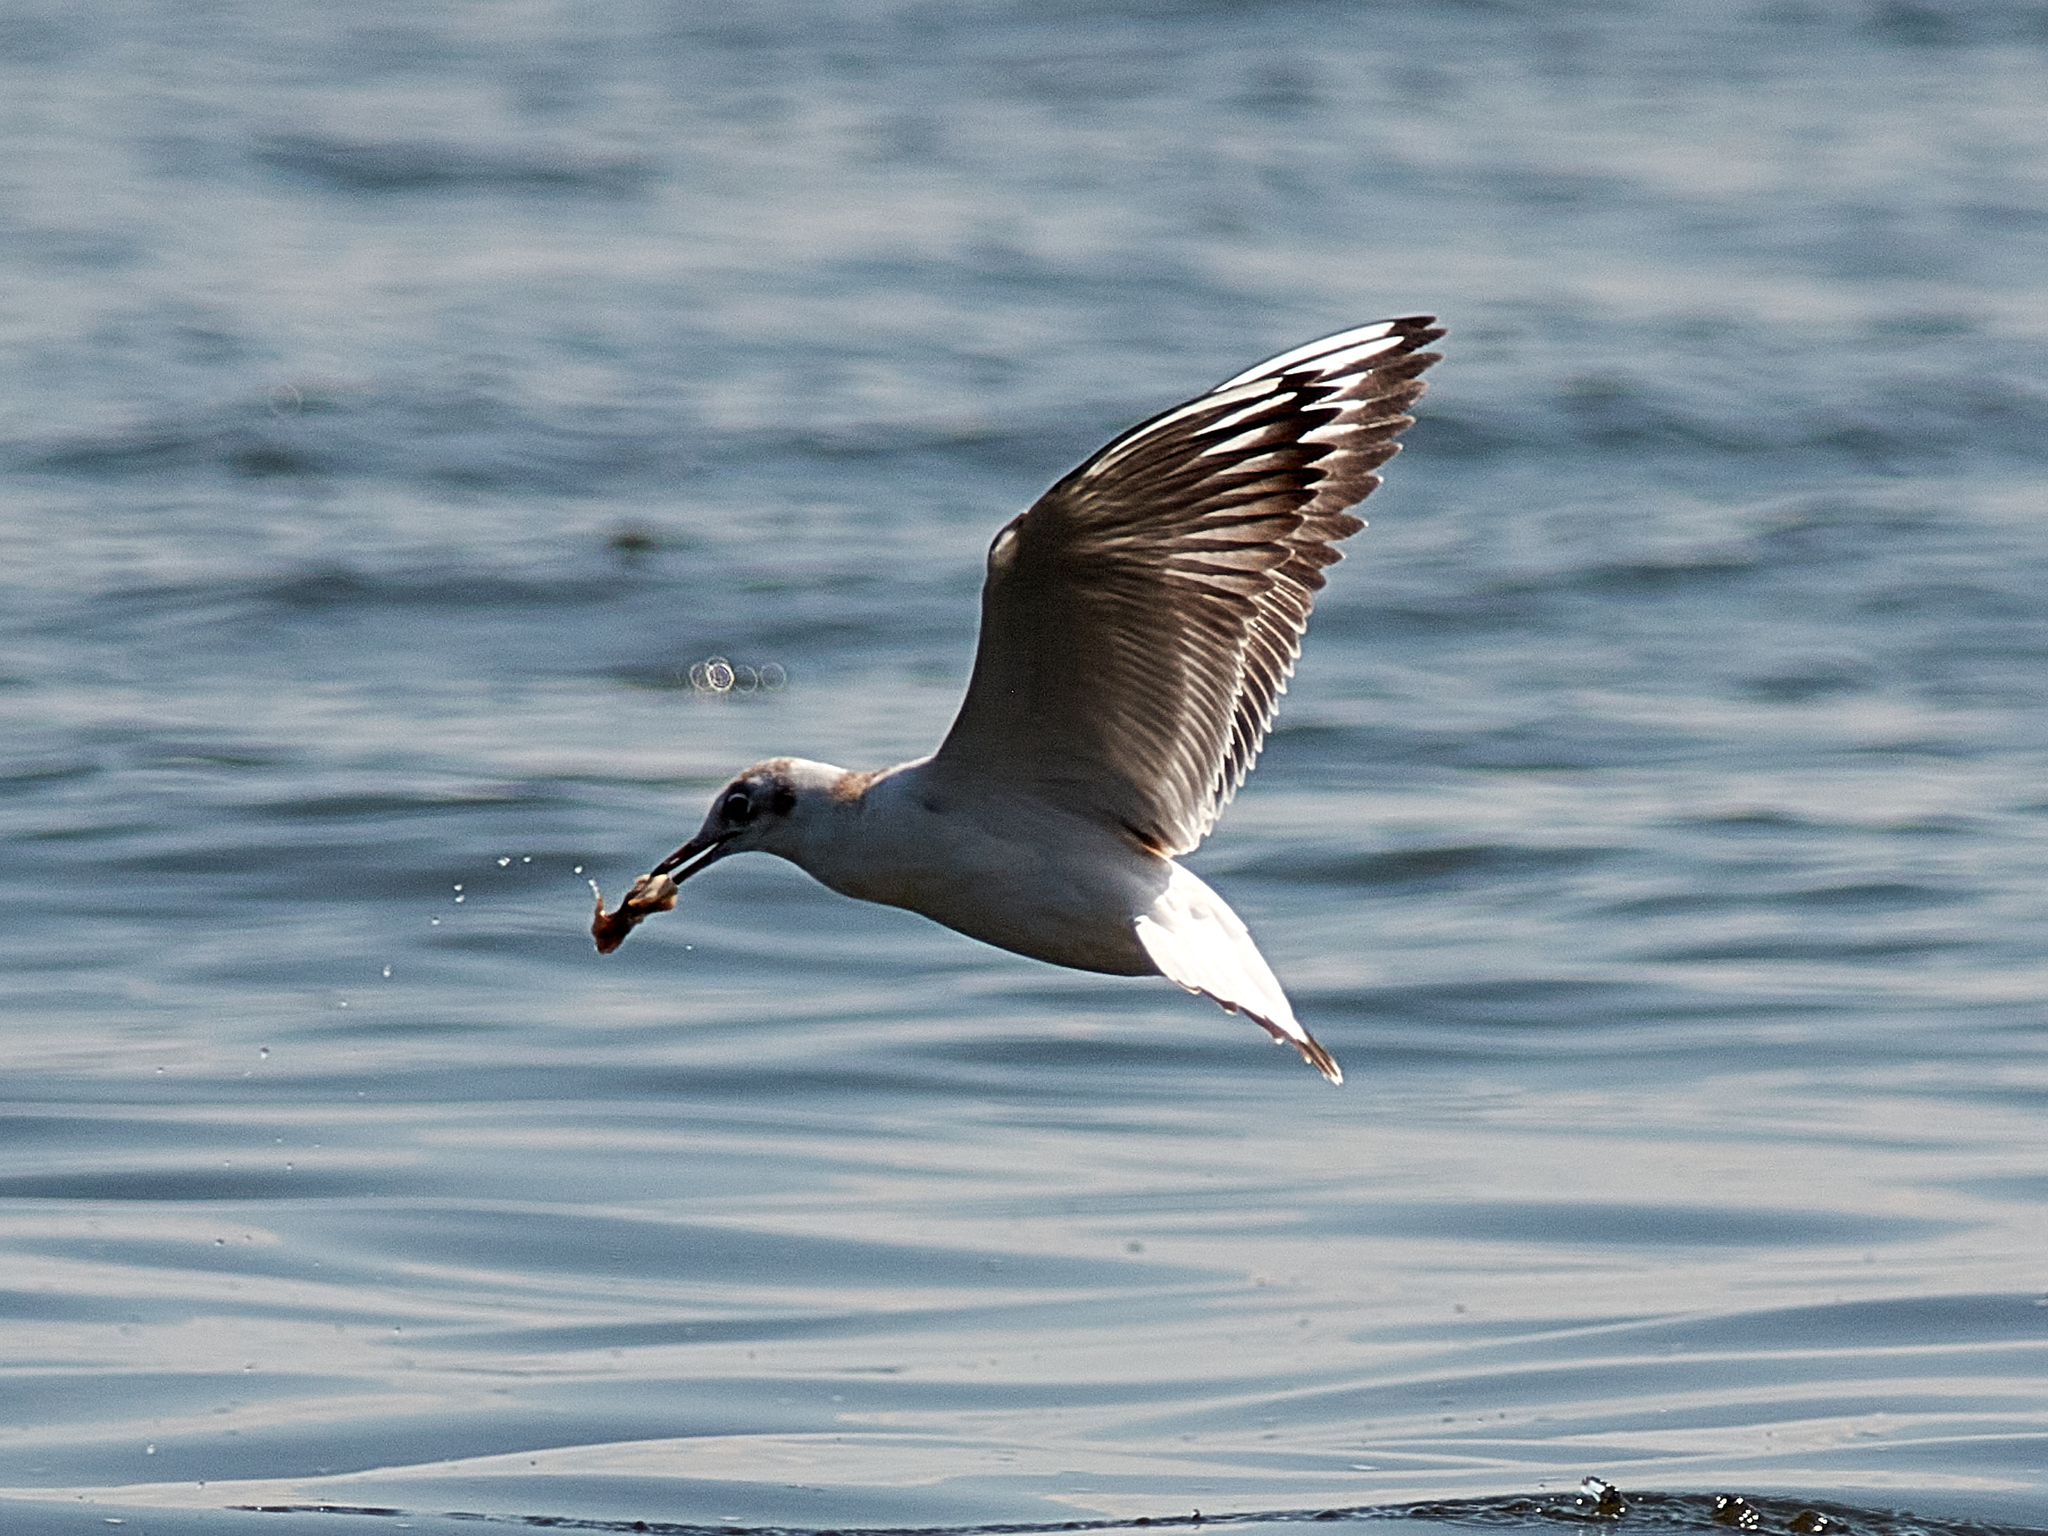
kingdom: Animalia
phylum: Chordata
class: Aves
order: Charadriiformes
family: Laridae
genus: Chroicocephalus
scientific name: Chroicocephalus ridibundus
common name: Black-headed gull
